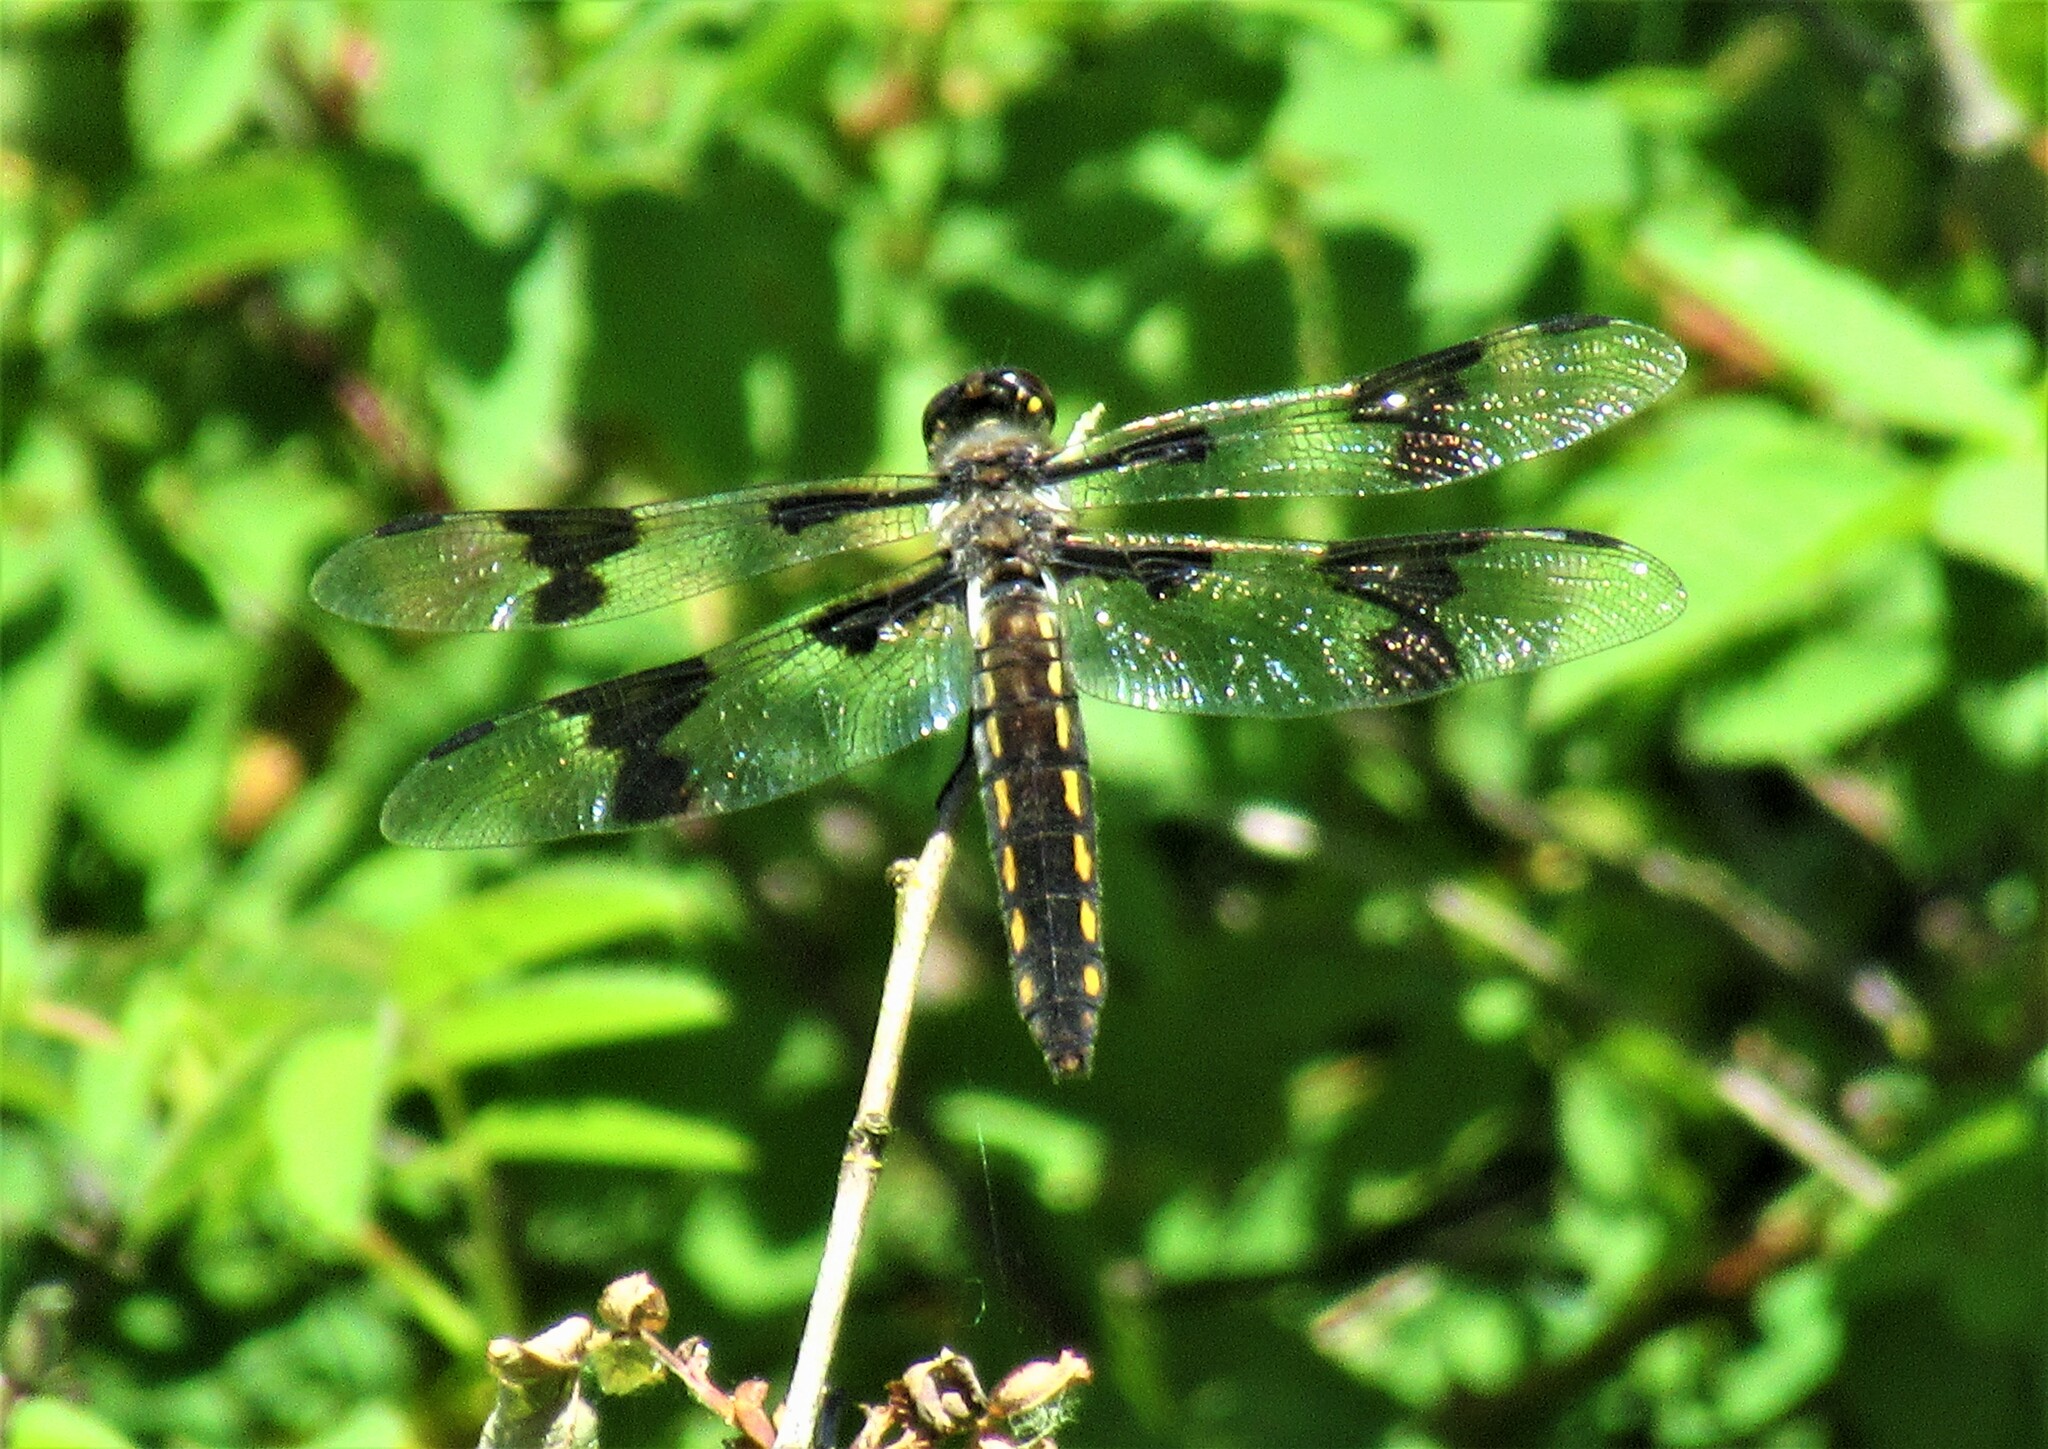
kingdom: Animalia
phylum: Arthropoda
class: Insecta
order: Odonata
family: Libellulidae
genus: Libellula
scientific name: Libellula forensis
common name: Eight-spotted skimmer
